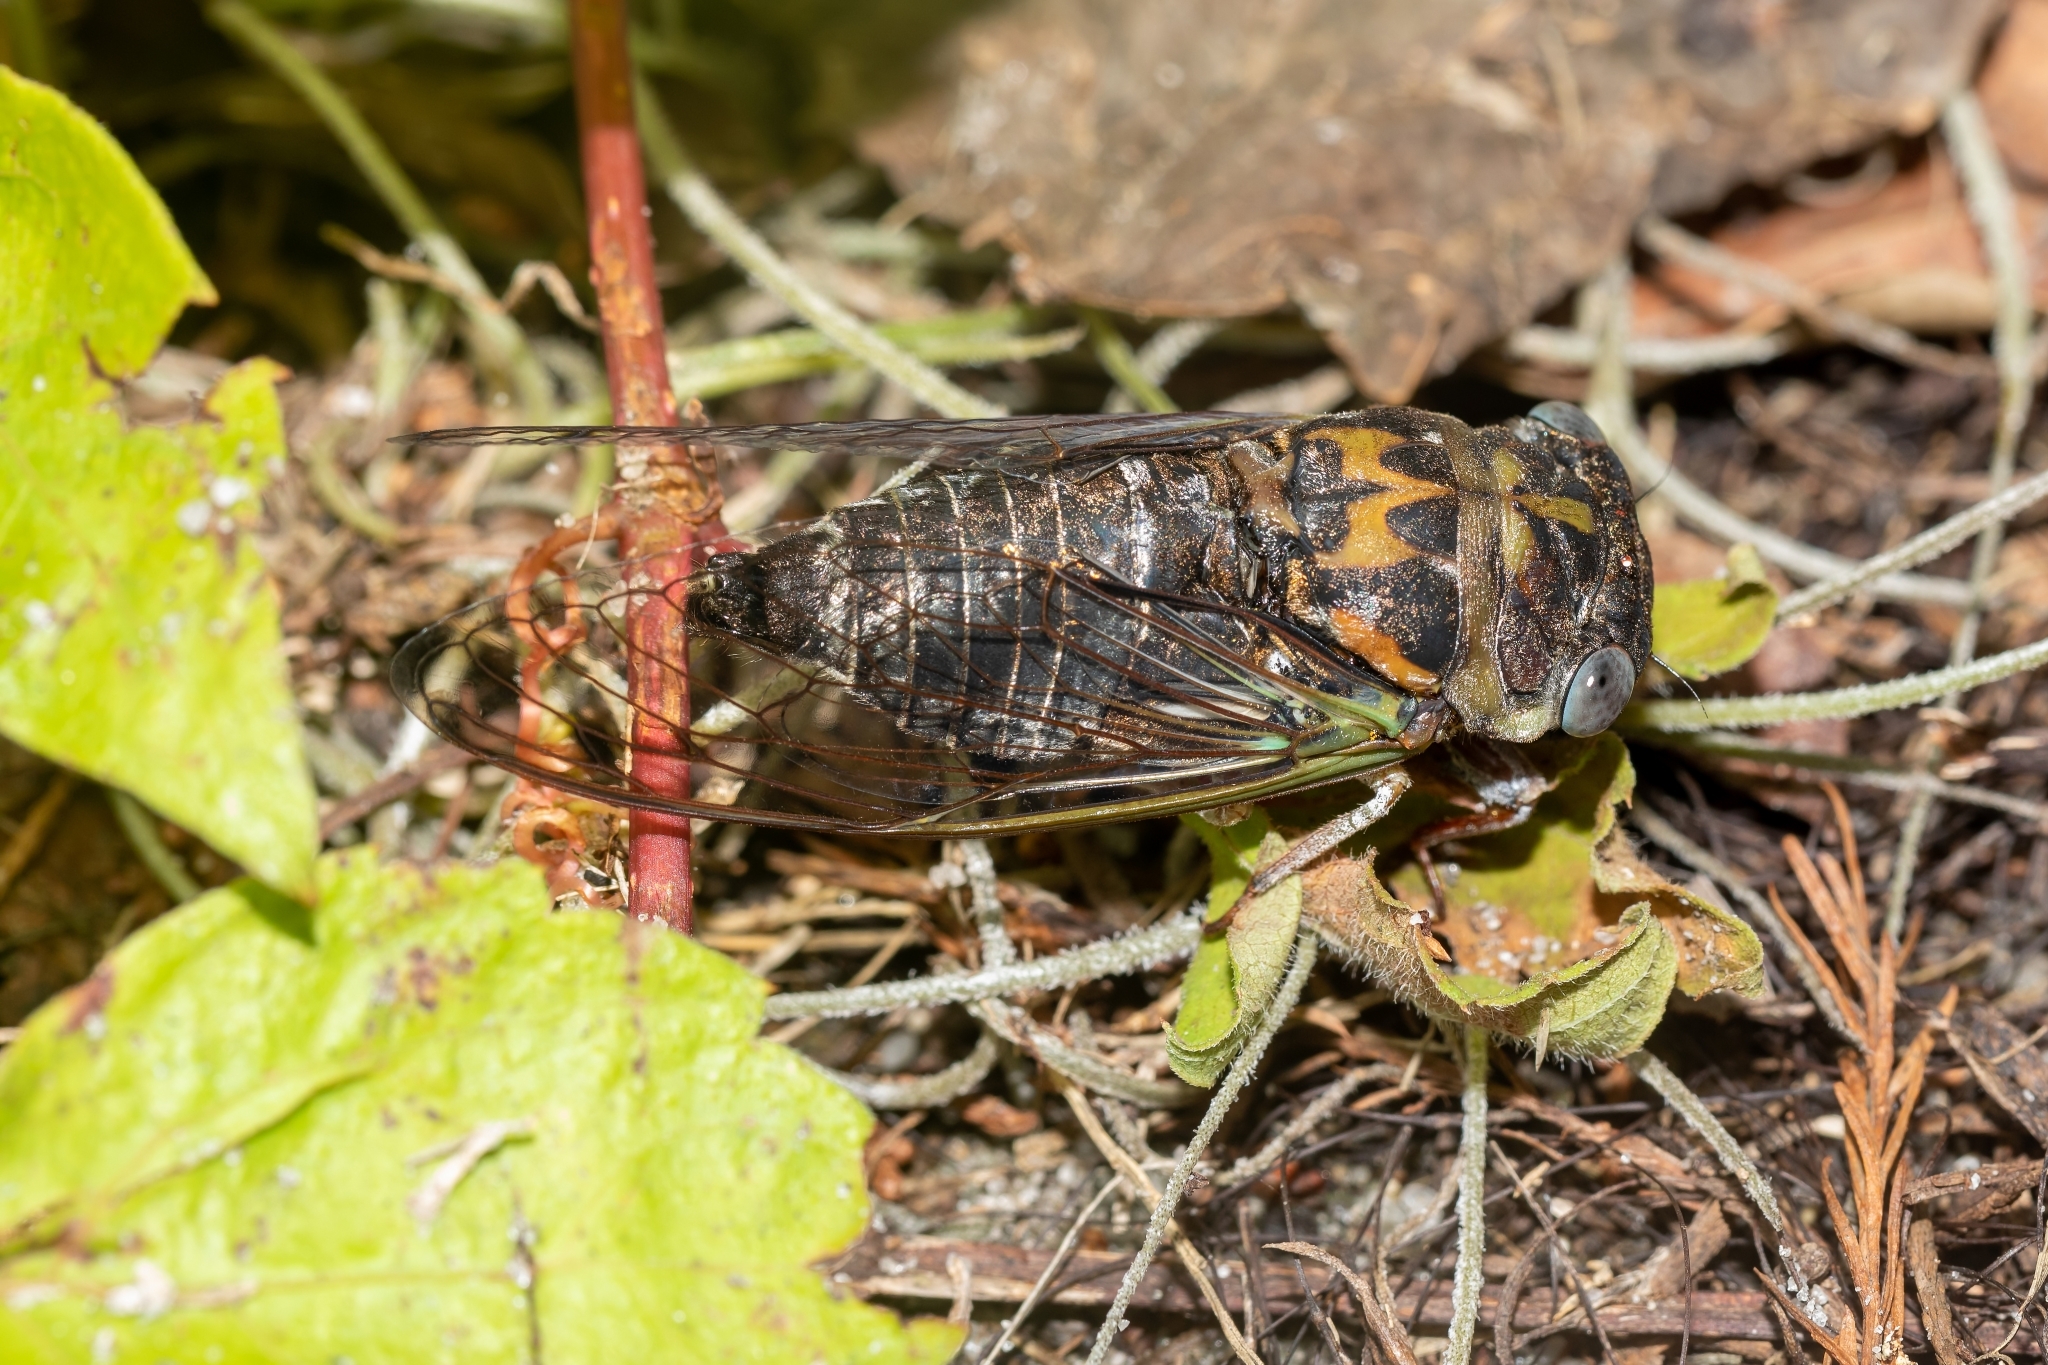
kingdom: Animalia
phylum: Arthropoda
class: Insecta
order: Hemiptera
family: Cicadidae
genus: Neotibicen
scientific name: Neotibicen davisi
